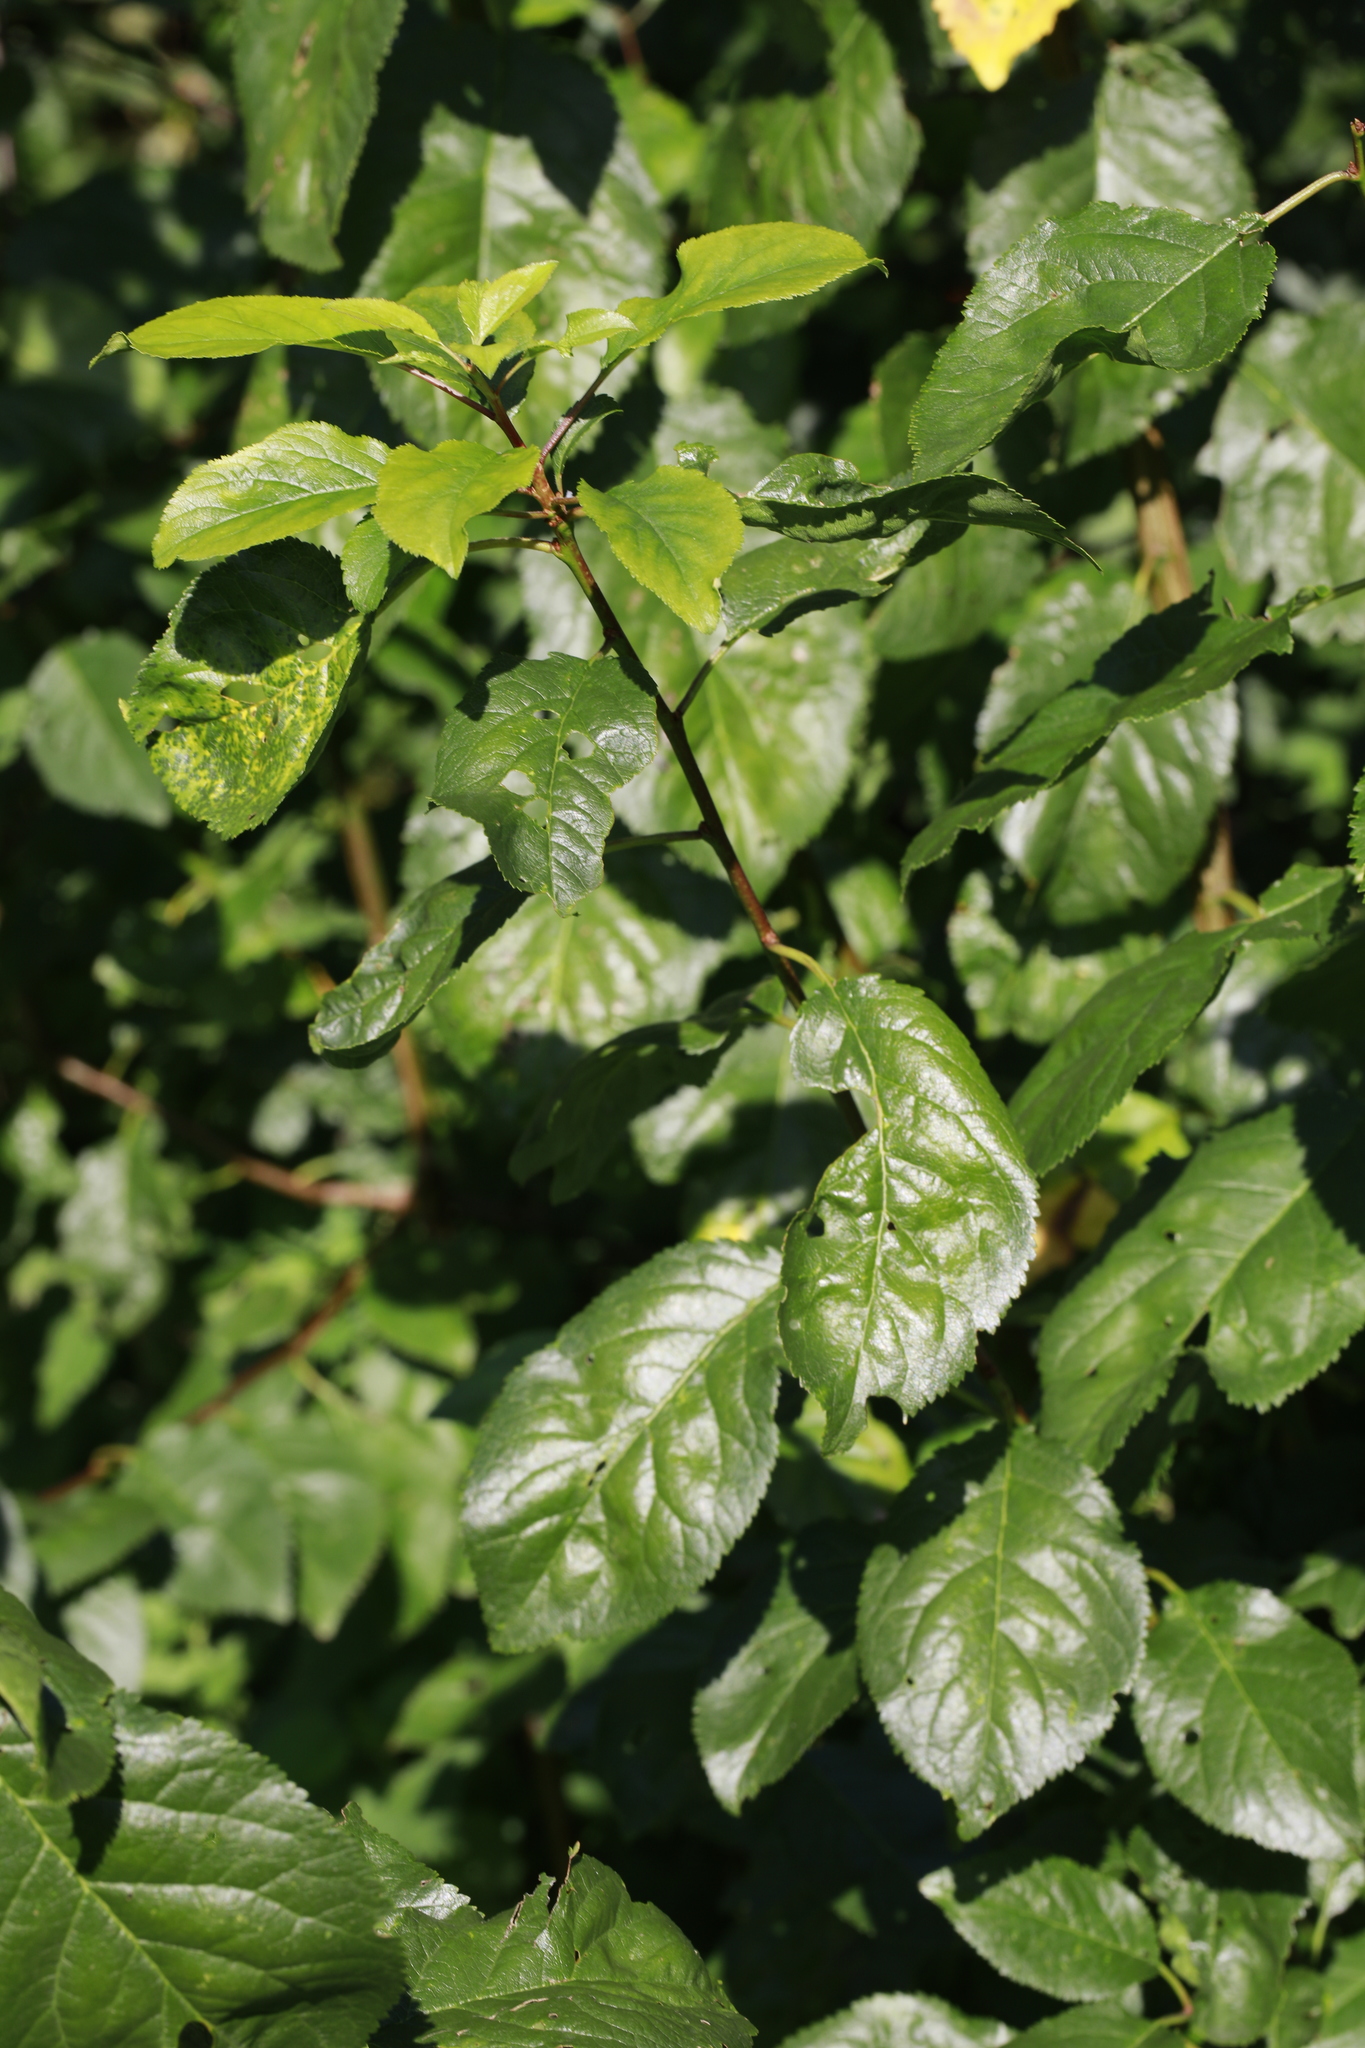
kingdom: Plantae
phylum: Tracheophyta
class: Magnoliopsida
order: Rosales
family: Rosaceae
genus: Malus
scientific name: Malus domestica
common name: Apple
